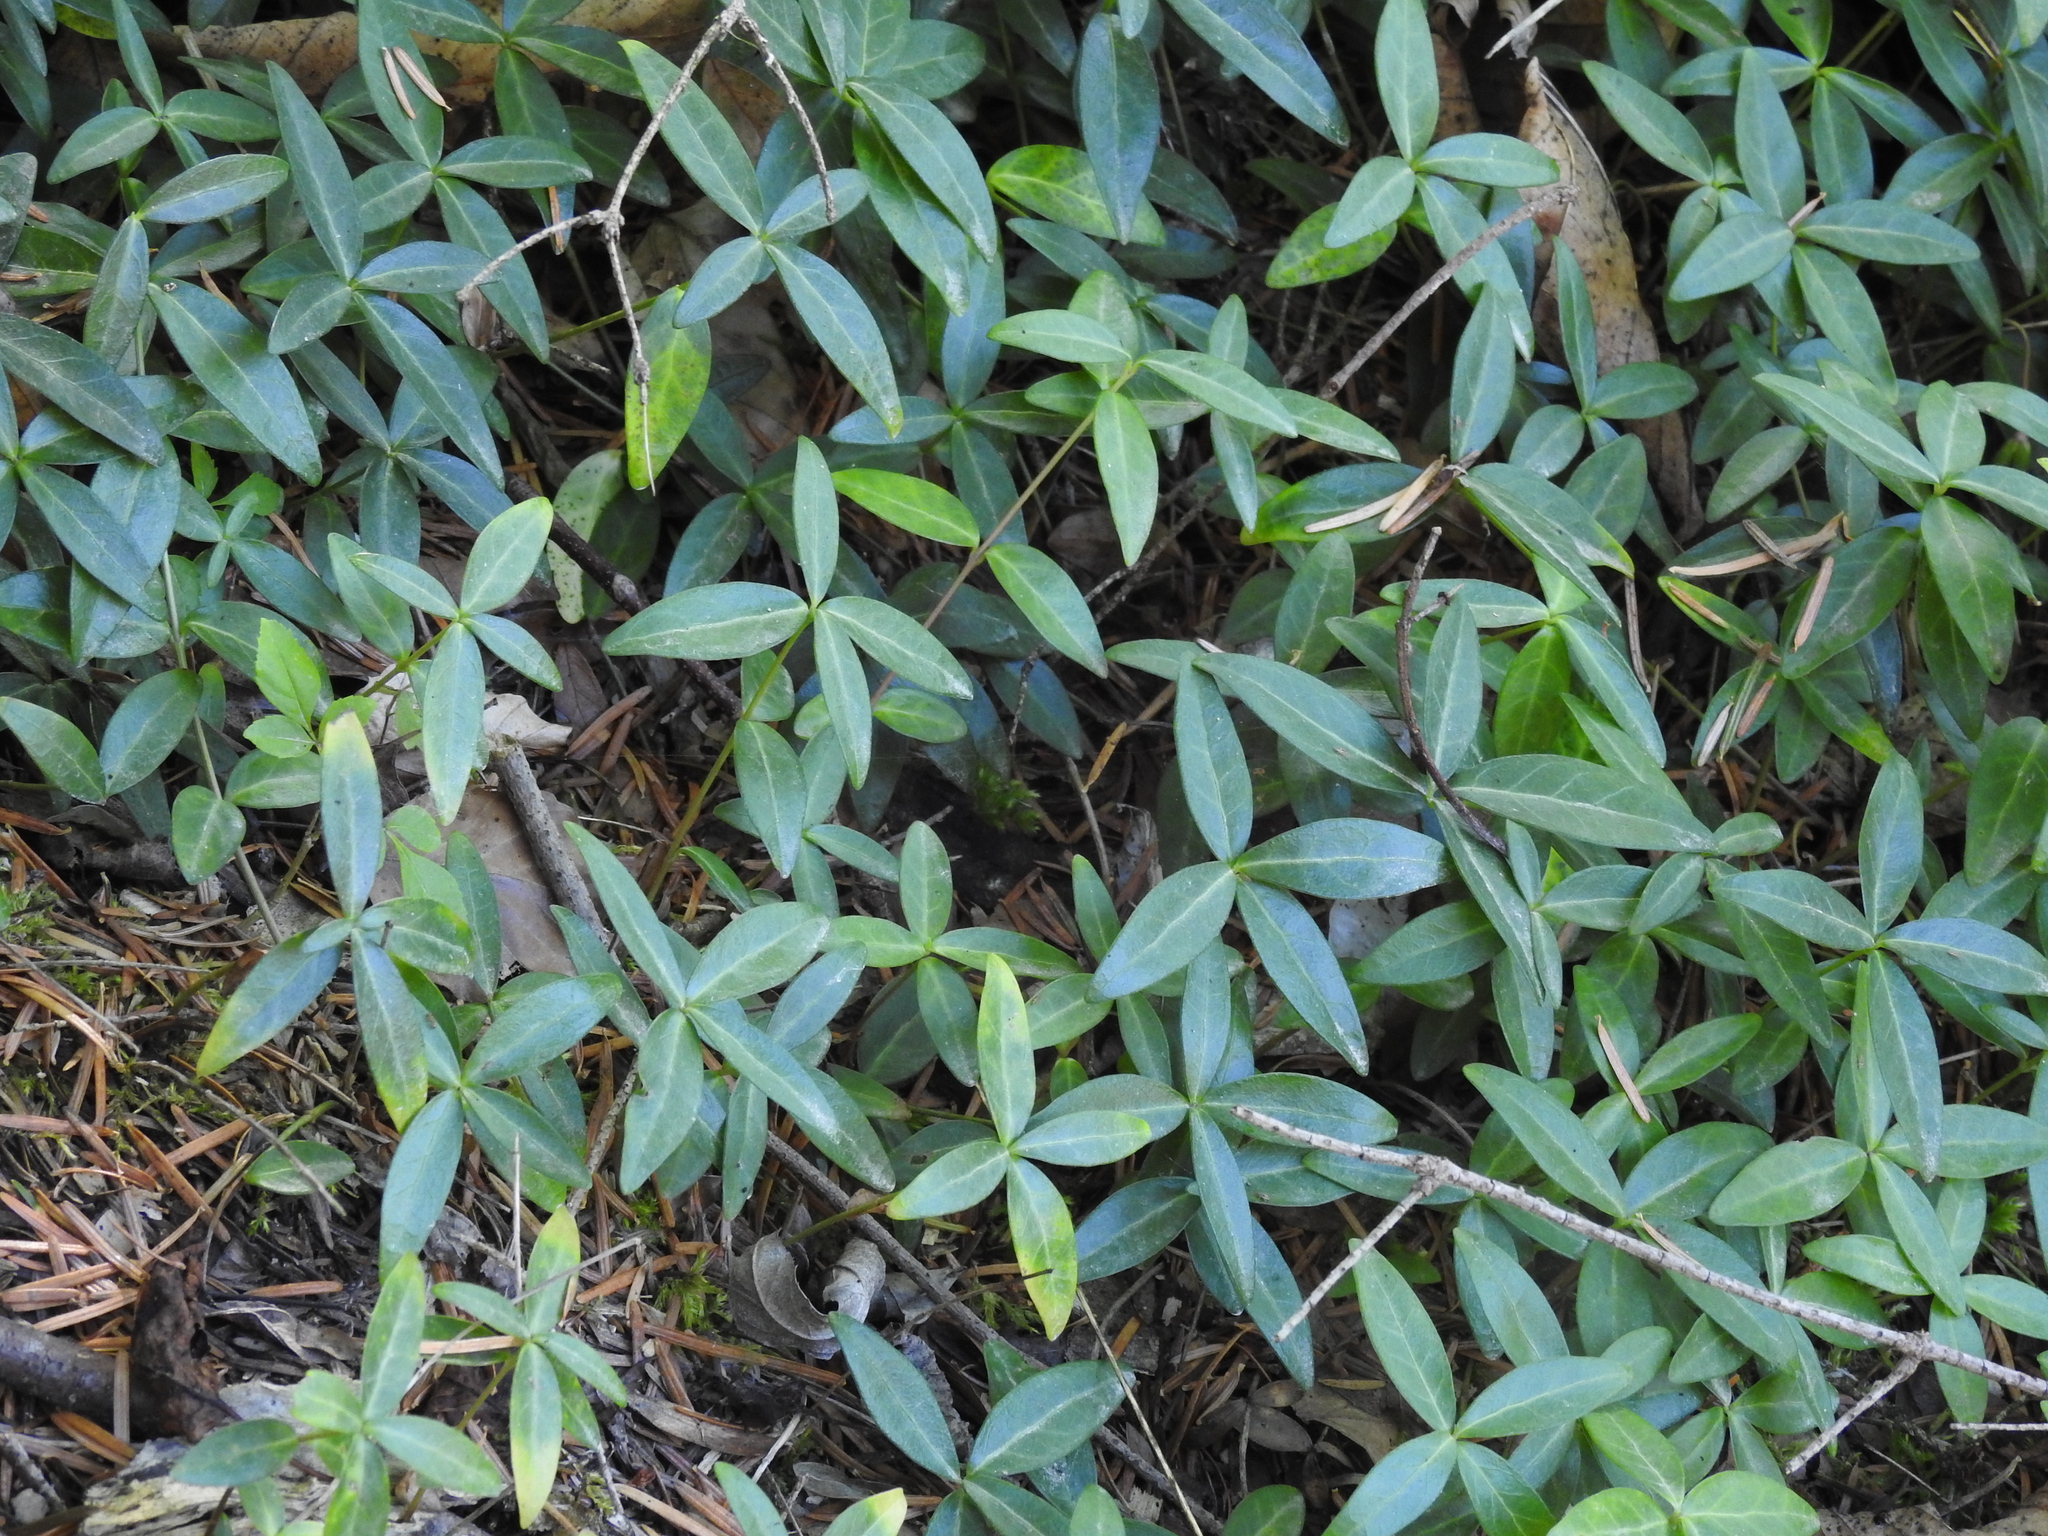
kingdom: Plantae
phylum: Tracheophyta
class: Magnoliopsida
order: Gentianales
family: Apocynaceae
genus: Vinca
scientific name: Vinca minor
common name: Lesser periwinkle
